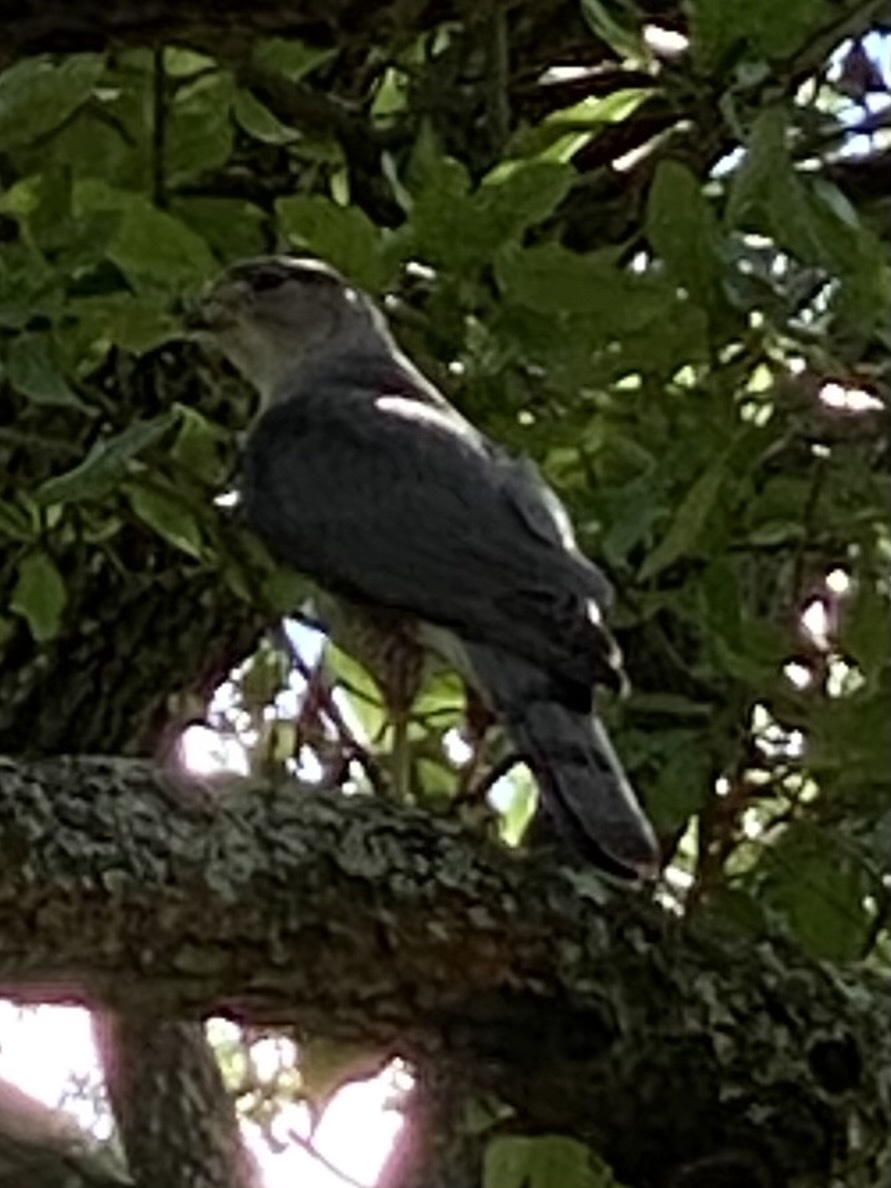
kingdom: Animalia
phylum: Chordata
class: Aves
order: Accipitriformes
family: Accipitridae
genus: Accipiter
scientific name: Accipiter cooperii
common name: Cooper's hawk
